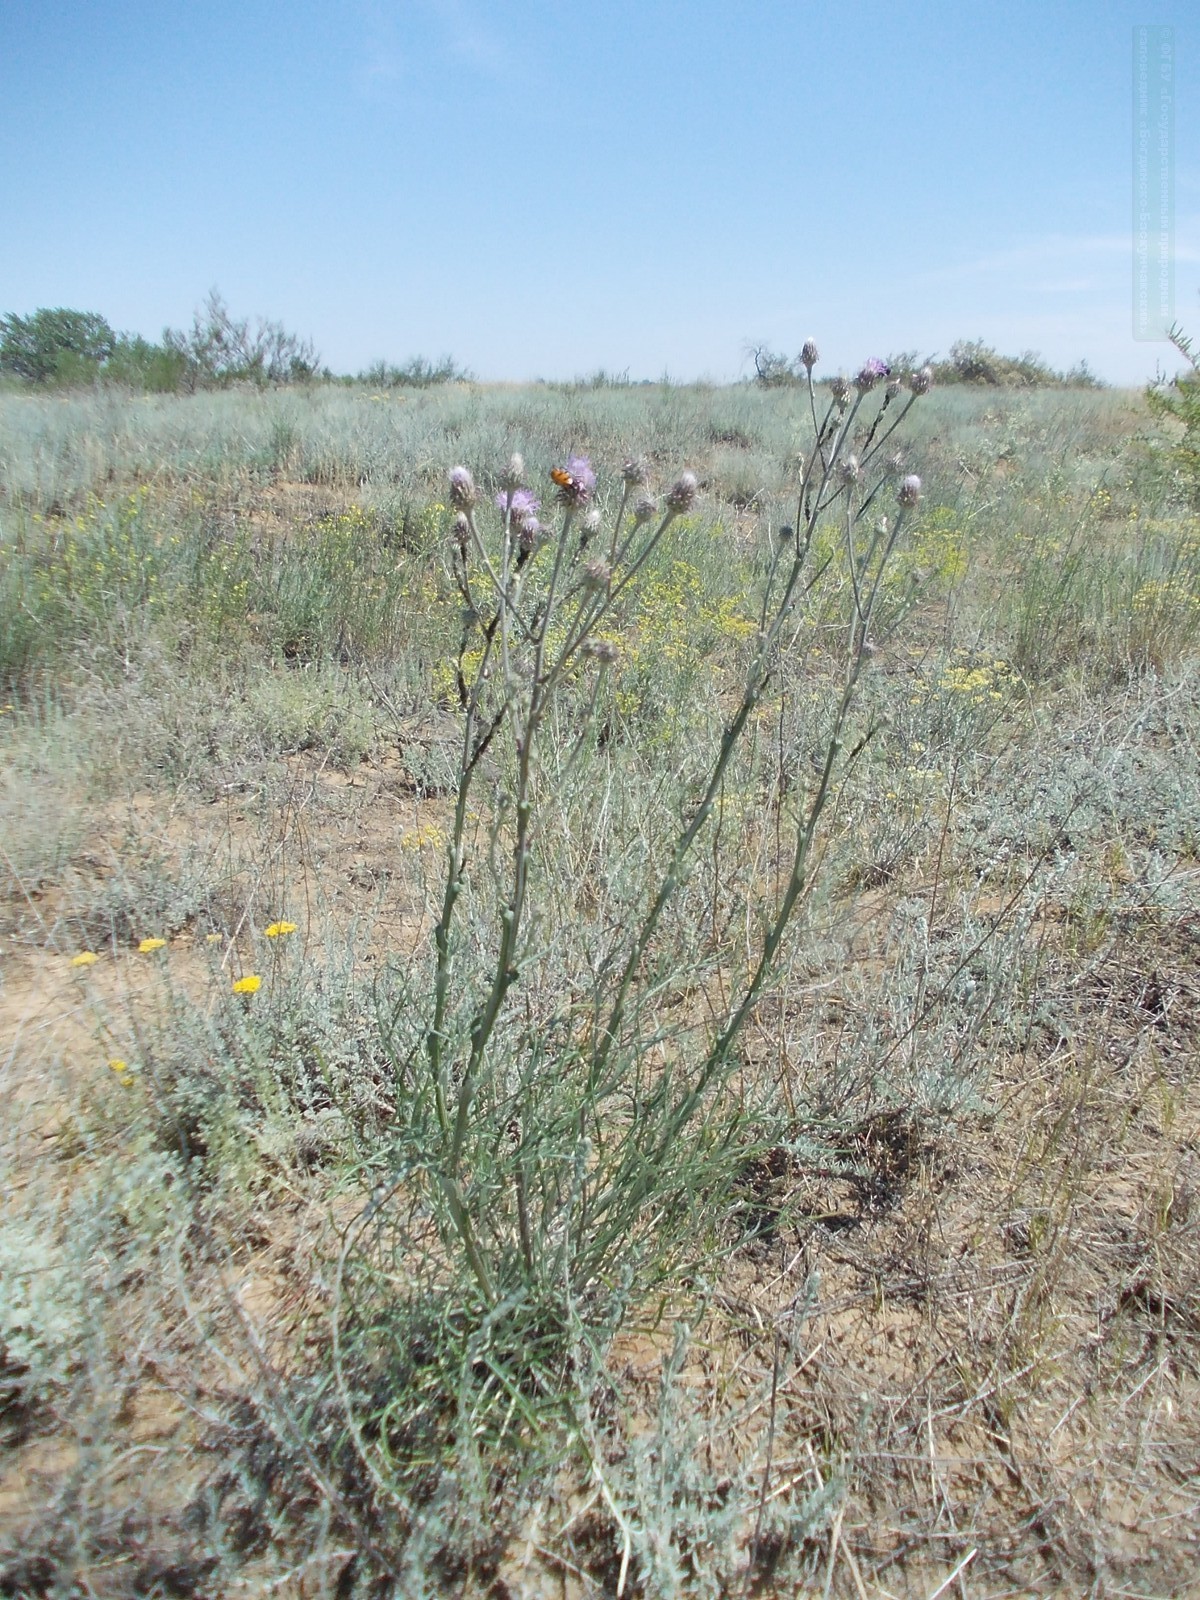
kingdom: Plantae
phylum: Tracheophyta
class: Magnoliopsida
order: Asterales
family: Asteraceae
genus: Jurinea
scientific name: Jurinea polyclonos
